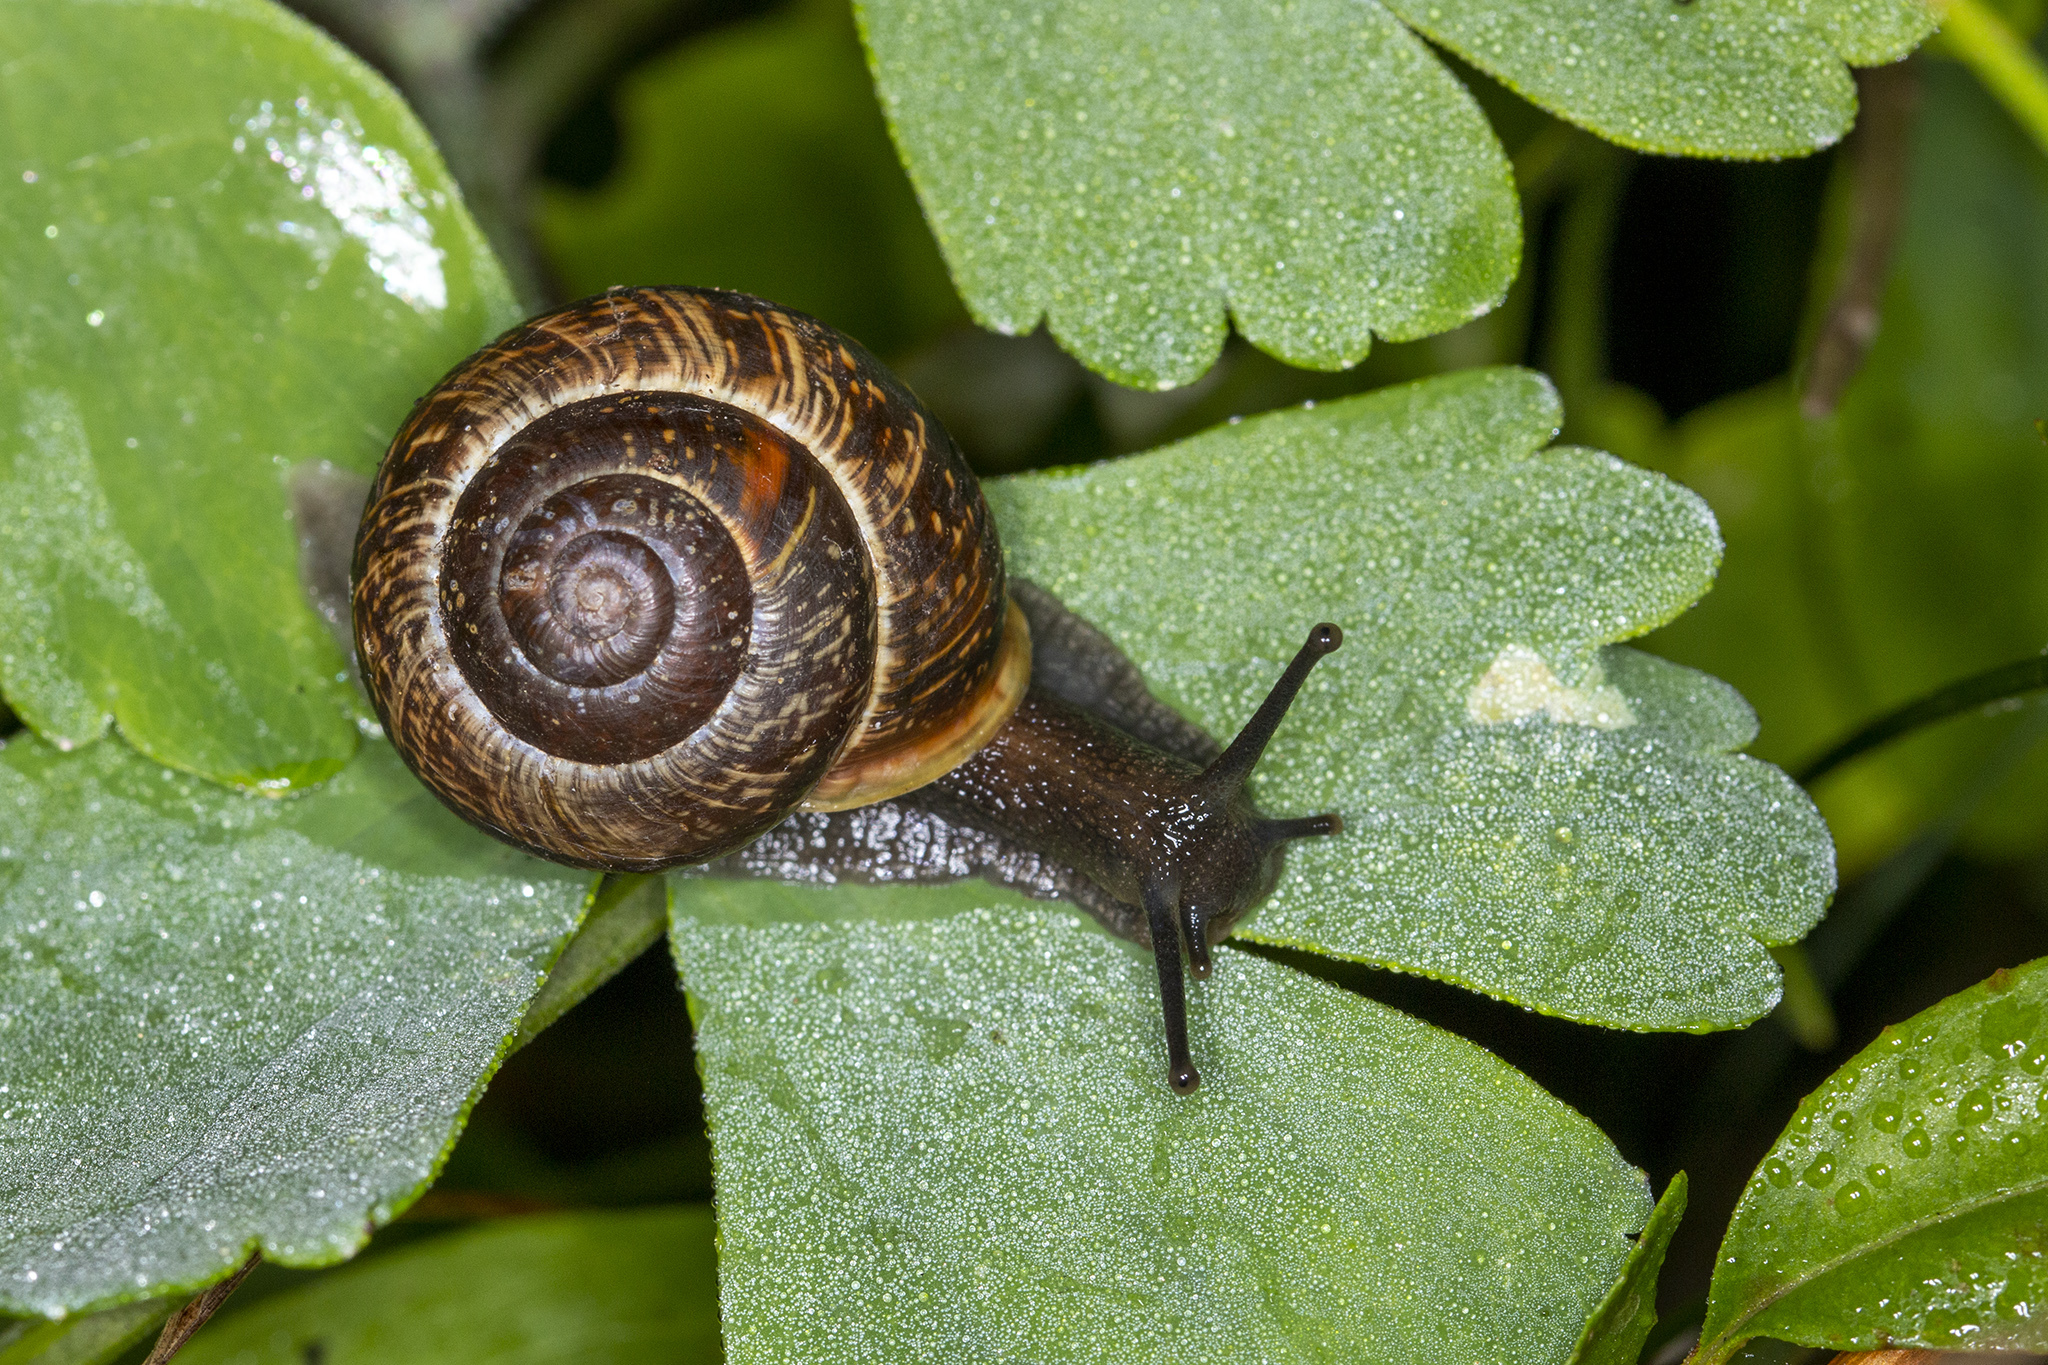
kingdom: Animalia
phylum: Mollusca
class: Gastropoda
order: Stylommatophora
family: Helicidae
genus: Arianta
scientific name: Arianta arbustorum
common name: Copse snail
